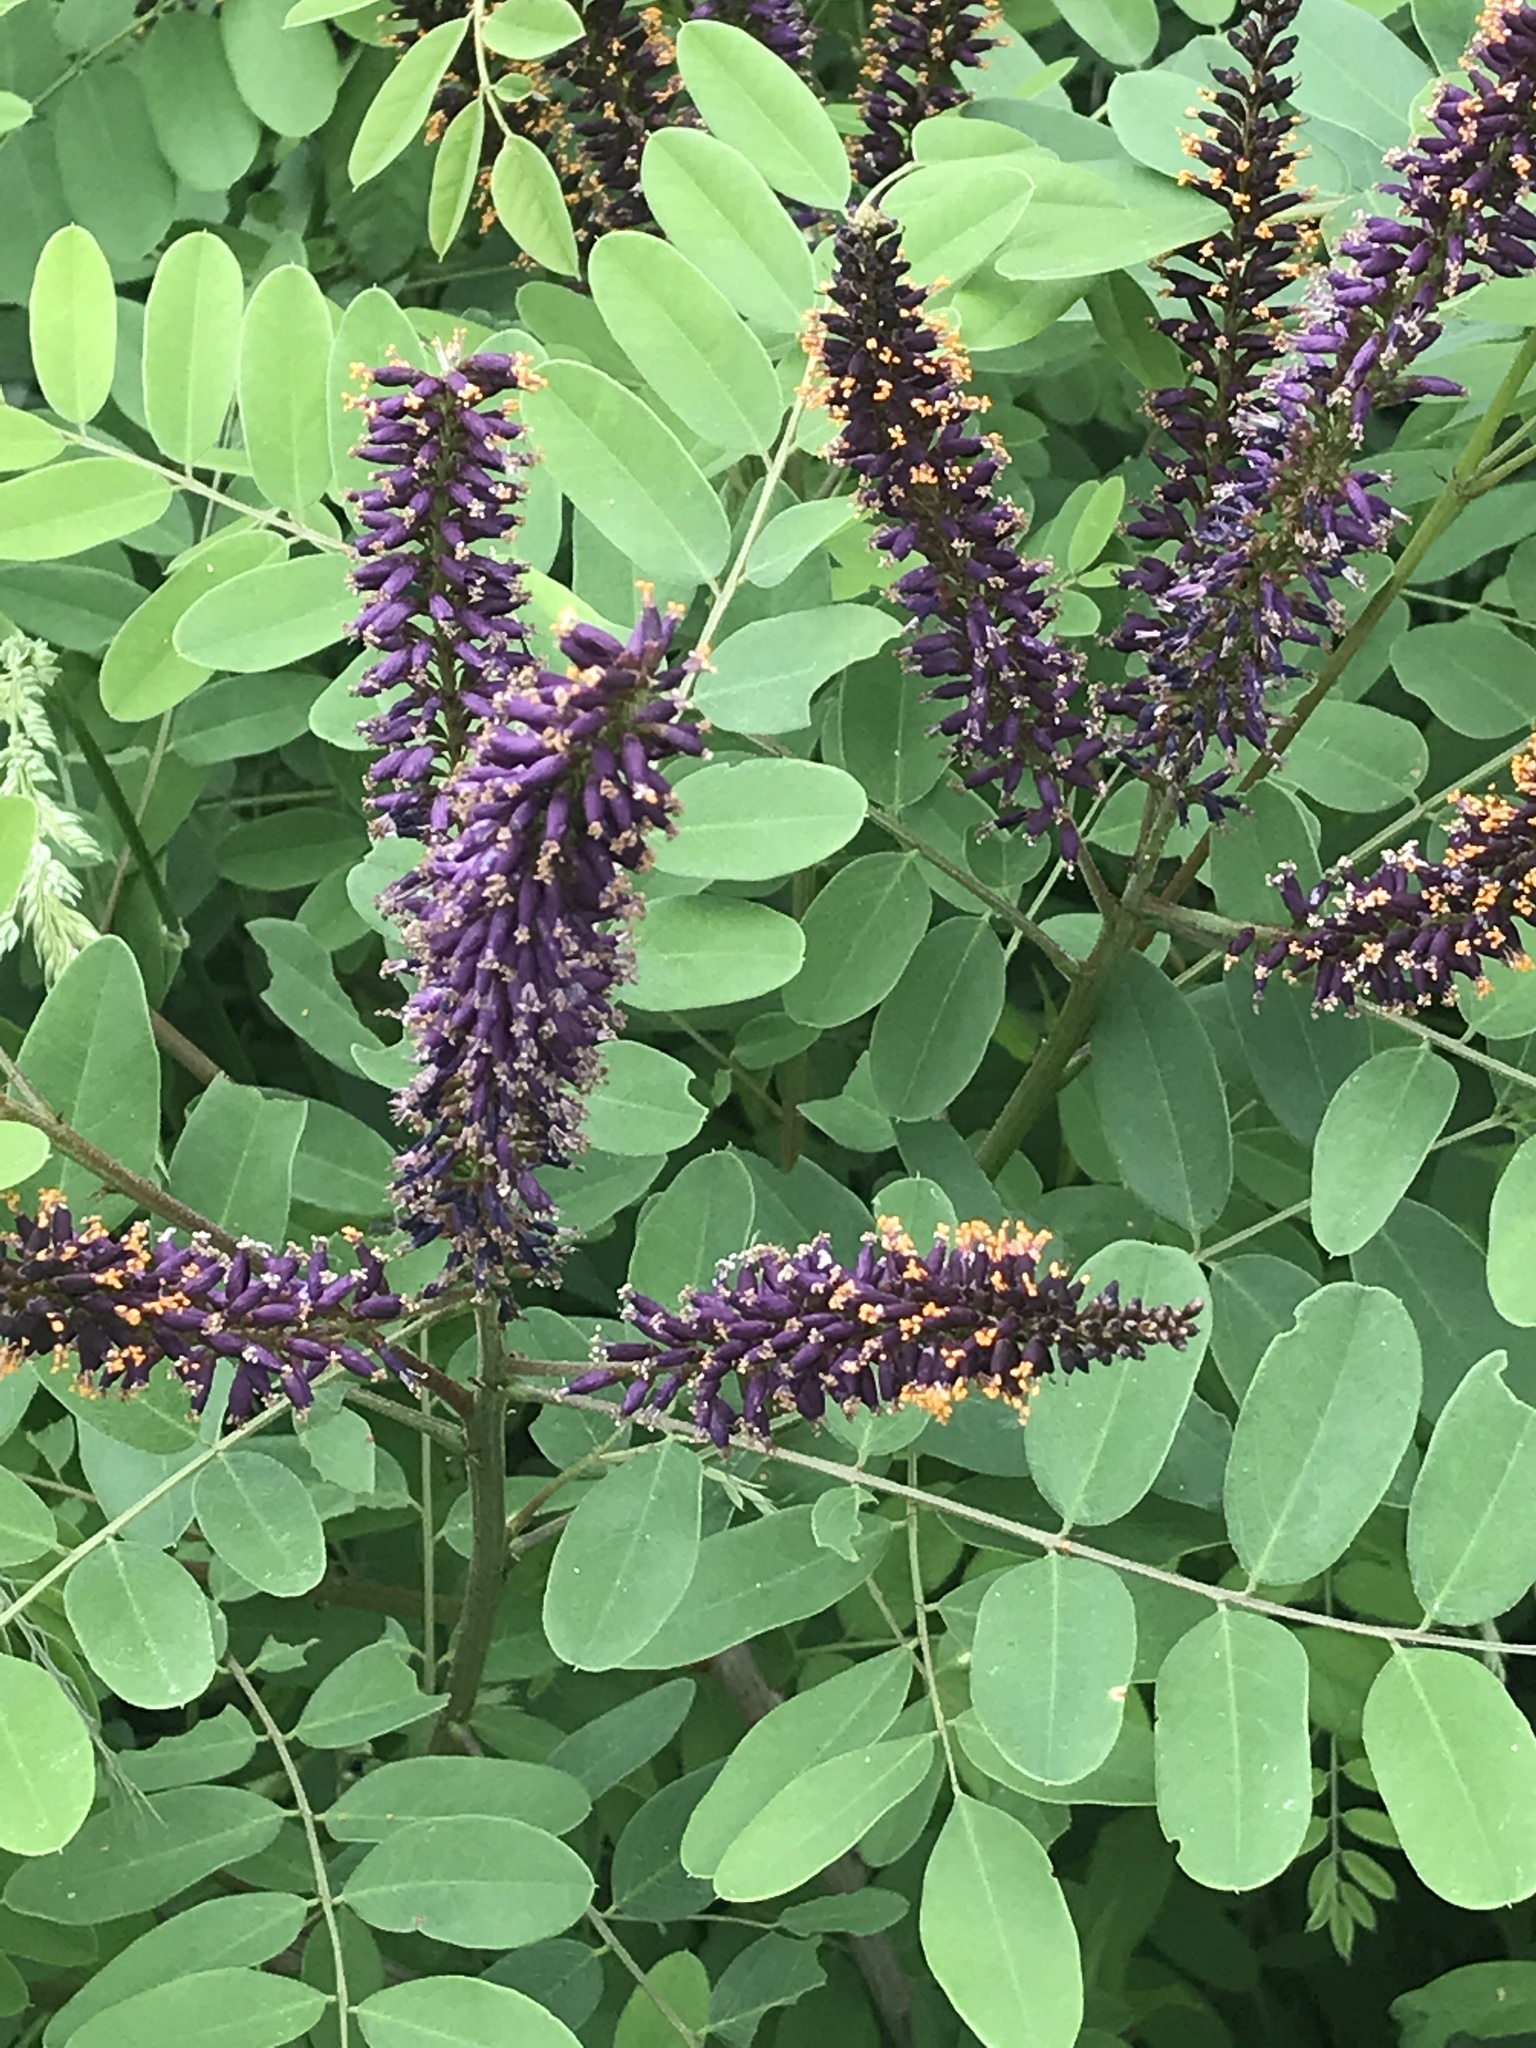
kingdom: Plantae
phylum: Tracheophyta
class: Magnoliopsida
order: Fabales
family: Fabaceae
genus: Amorpha
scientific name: Amorpha fruticosa
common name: False indigo
